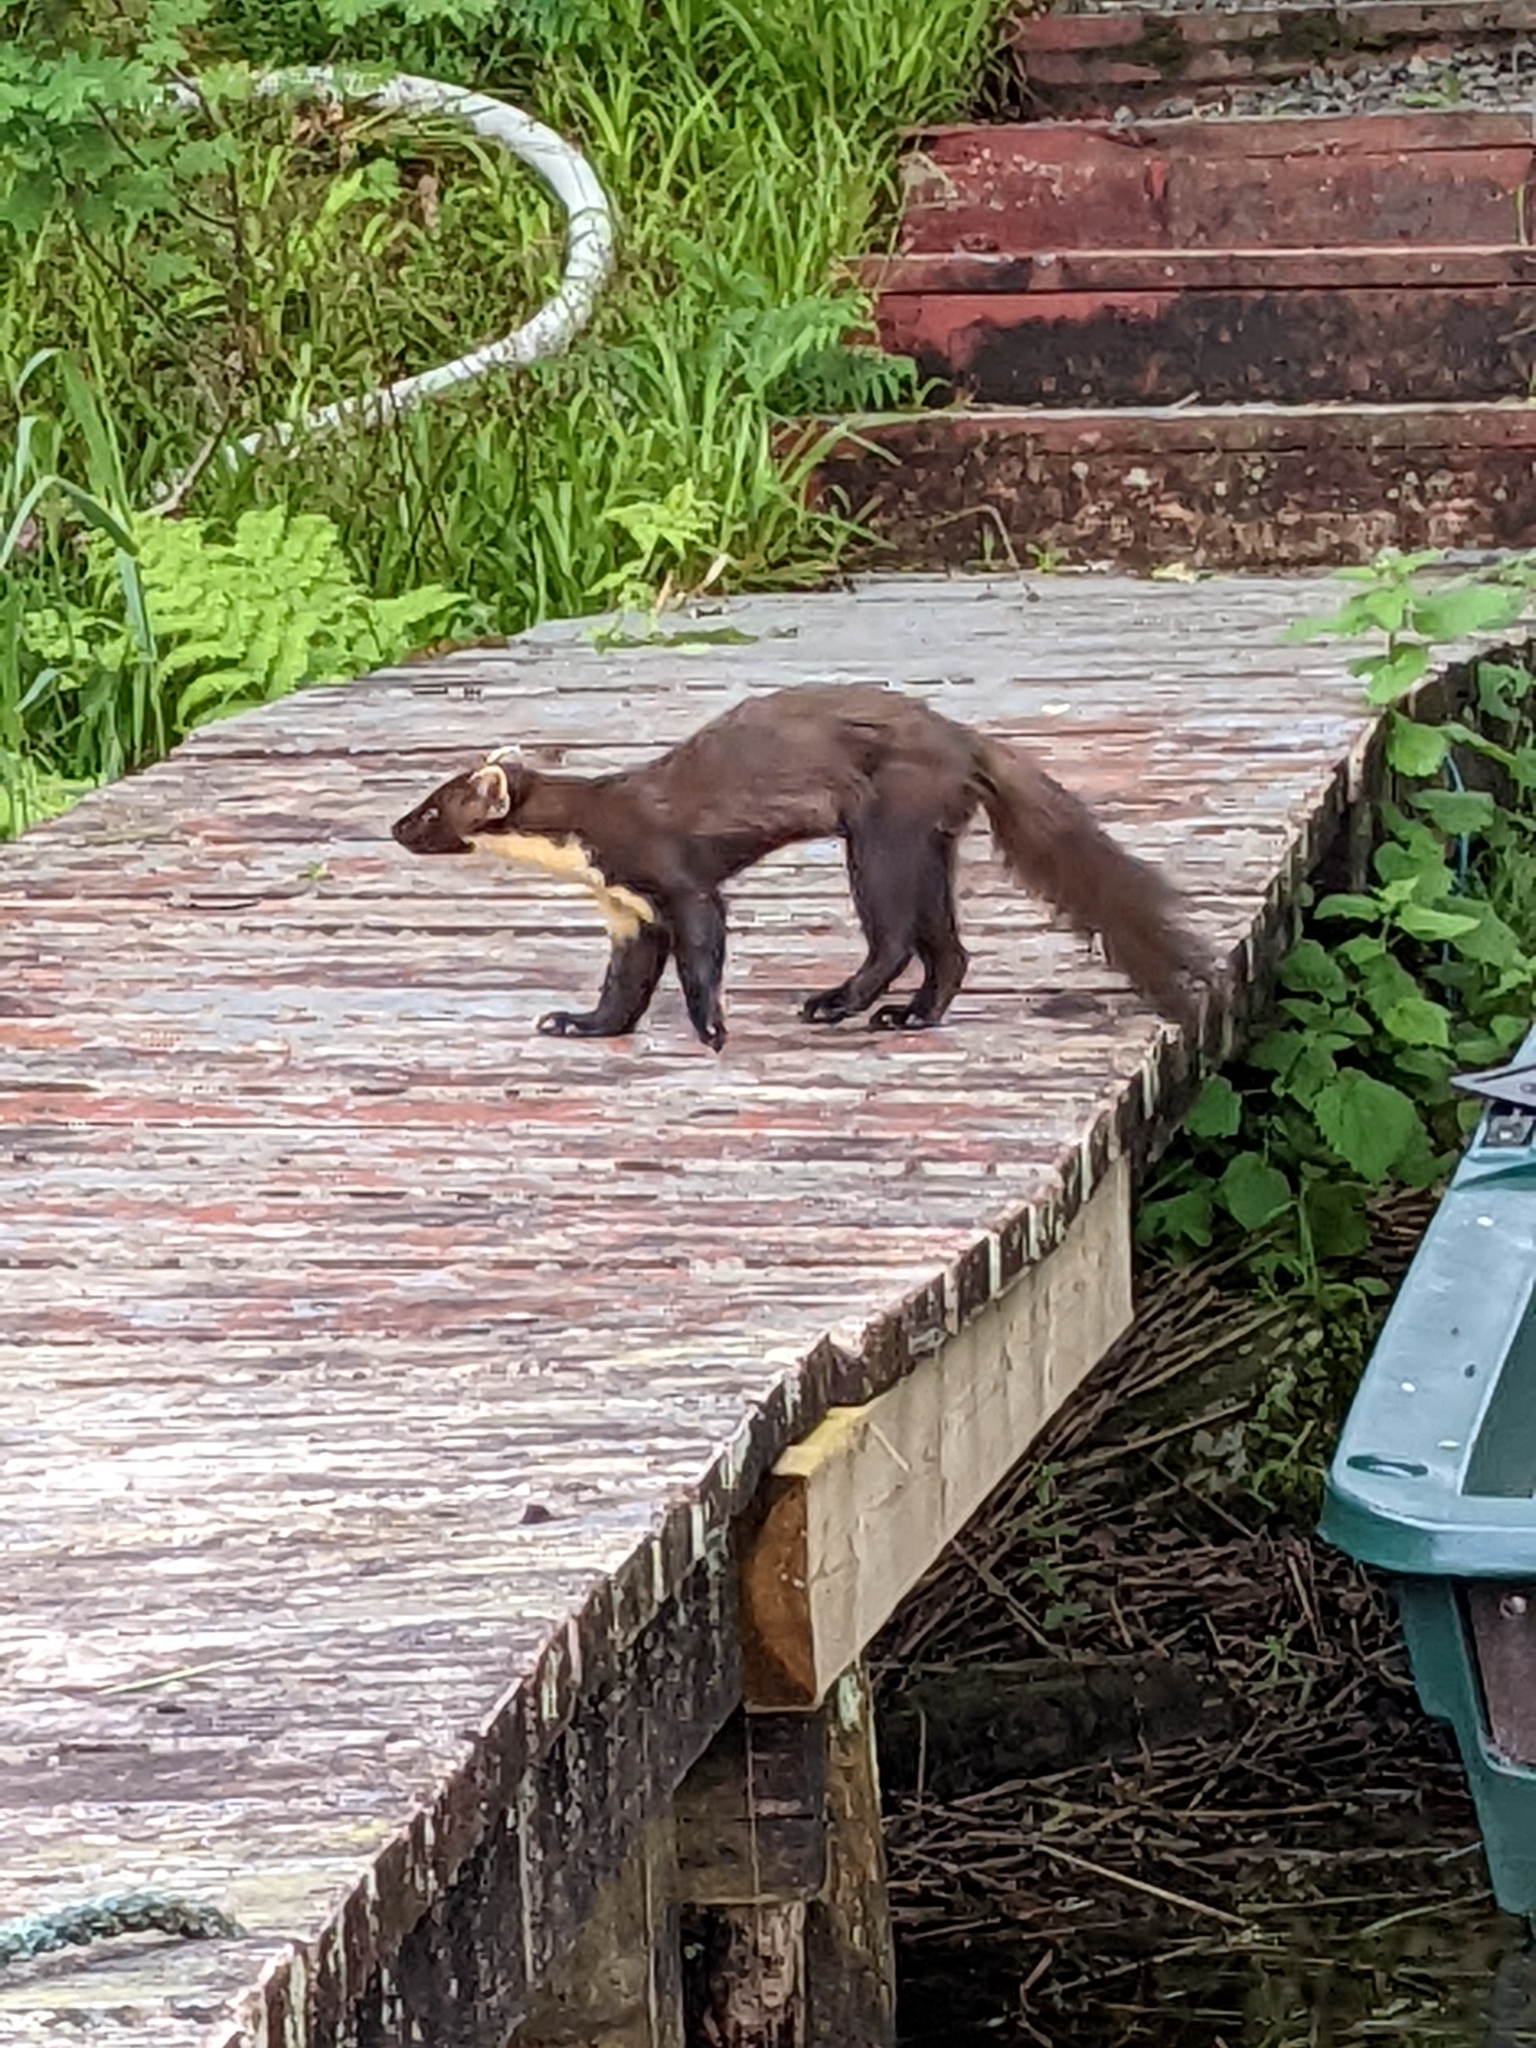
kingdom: Animalia
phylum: Chordata
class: Mammalia
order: Carnivora
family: Mustelidae
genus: Martes
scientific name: Martes martes
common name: European pine marten
